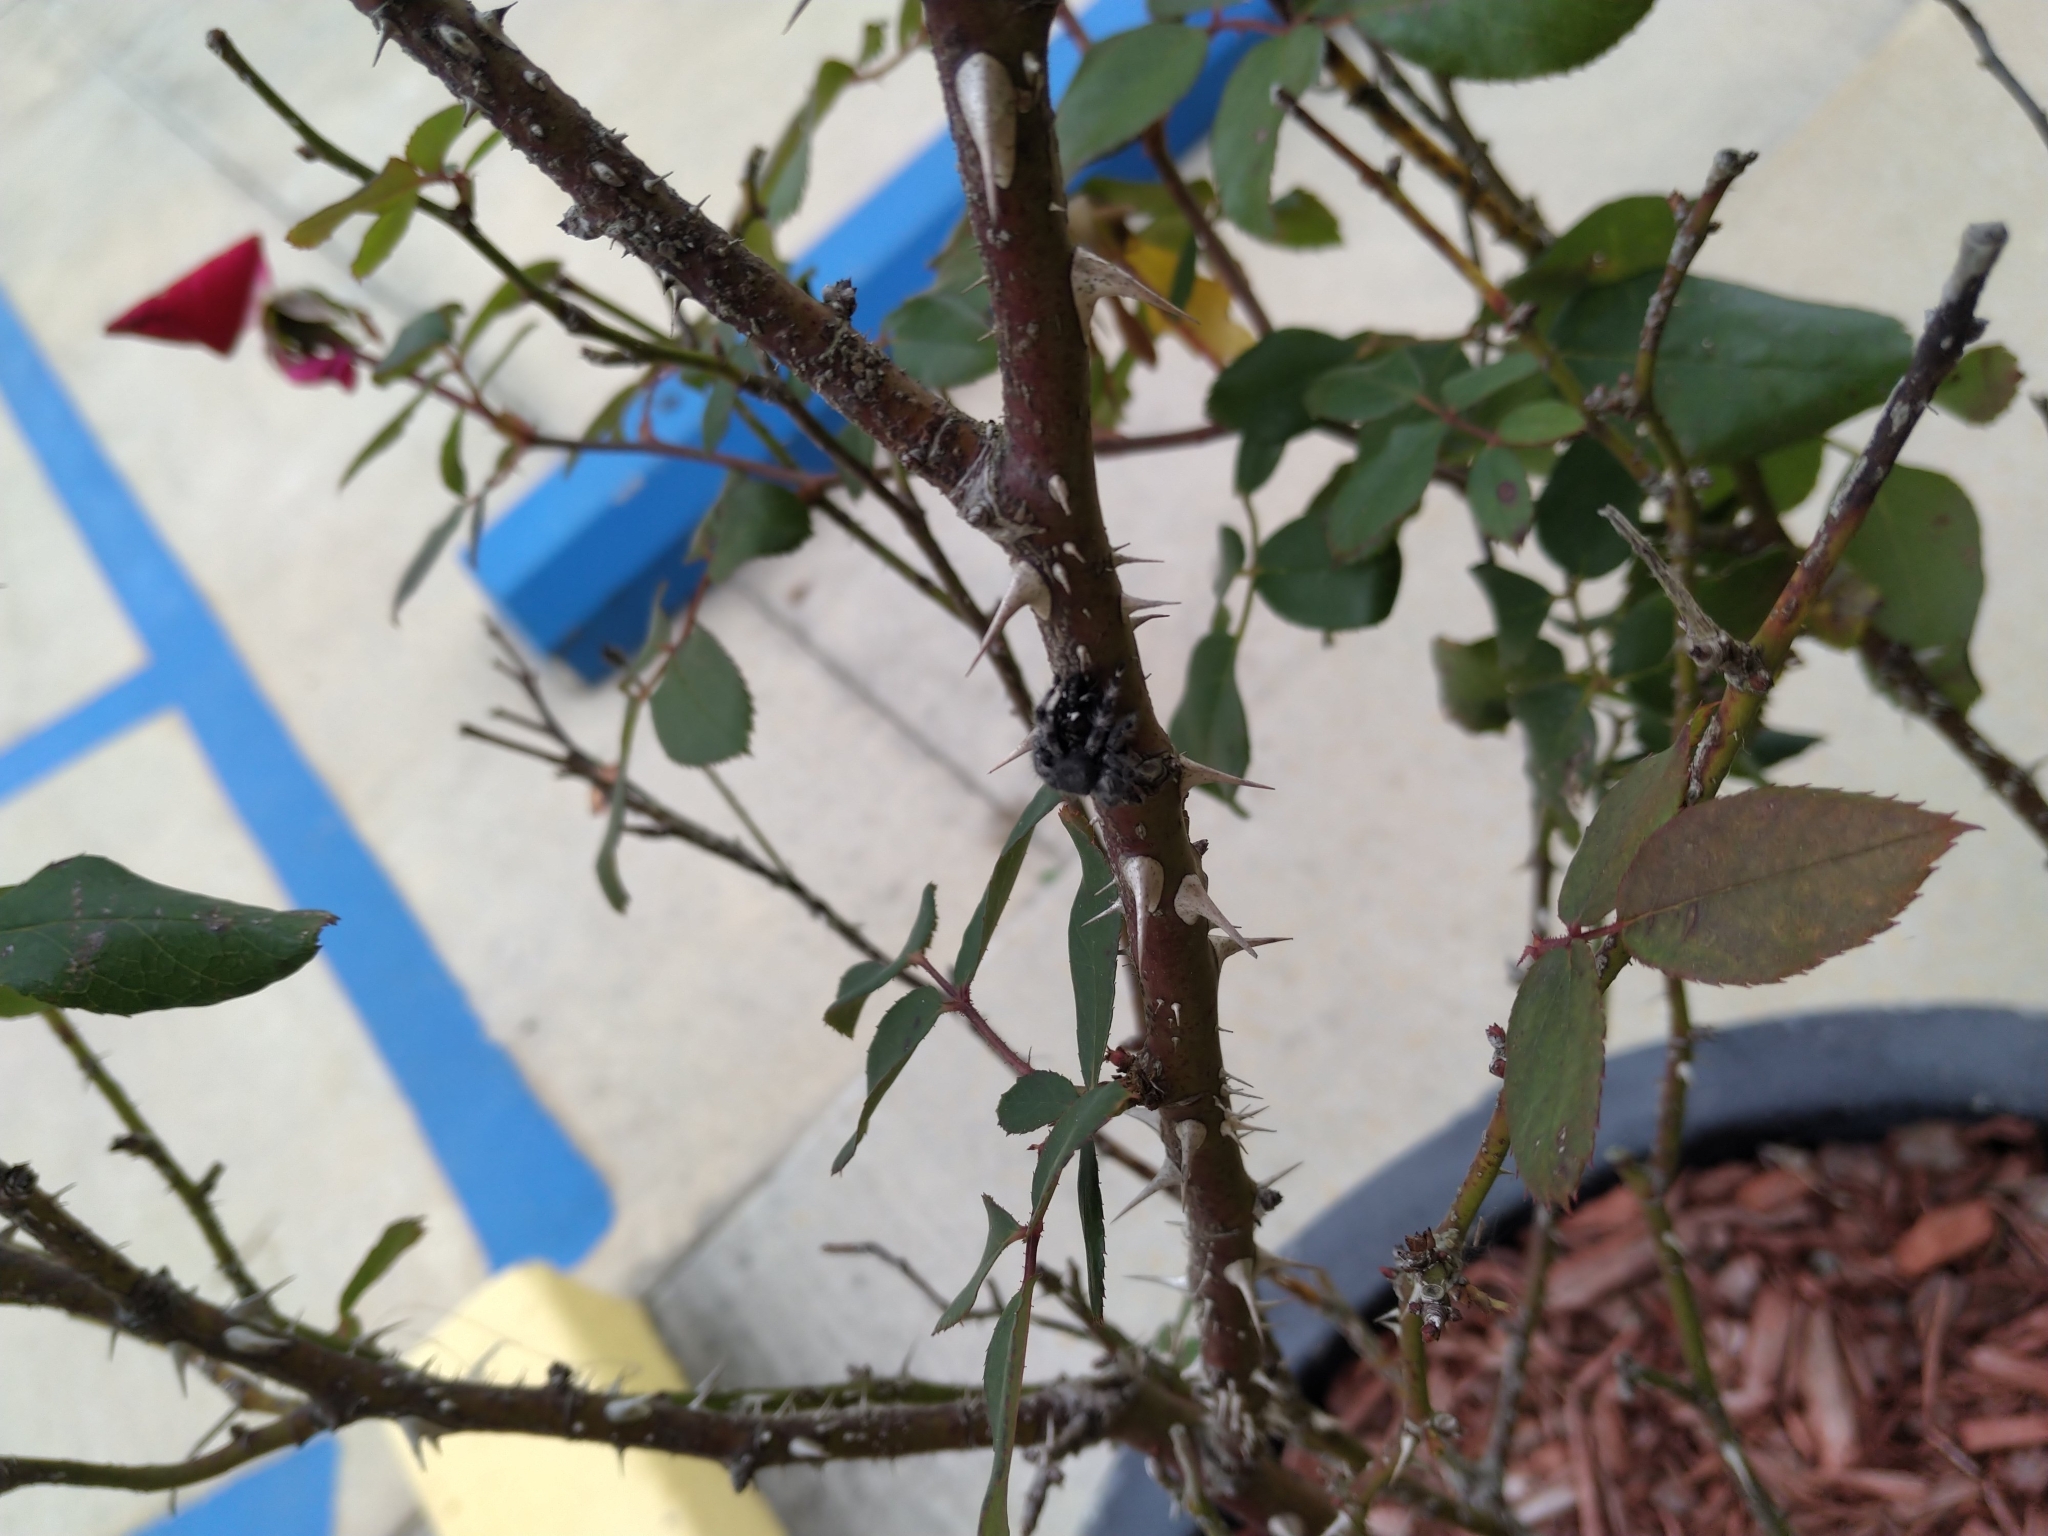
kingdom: Animalia
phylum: Arthropoda
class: Arachnida
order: Araneae
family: Salticidae
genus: Phidippus
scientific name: Phidippus audax
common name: Bold jumper
